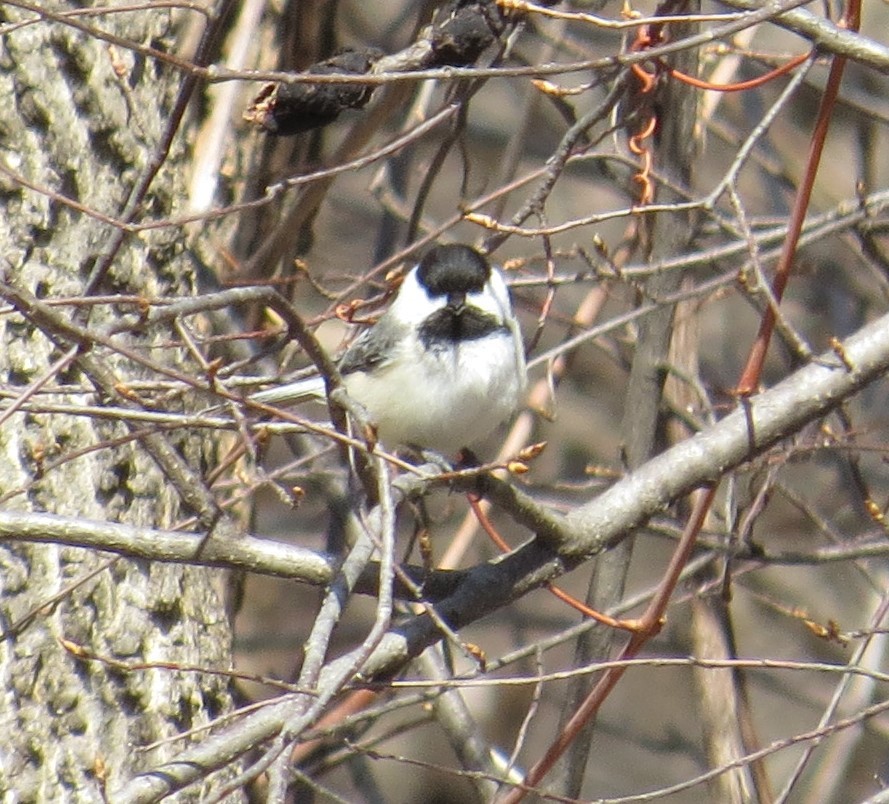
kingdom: Animalia
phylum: Chordata
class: Aves
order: Passeriformes
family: Paridae
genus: Poecile
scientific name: Poecile atricapillus
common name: Black-capped chickadee
